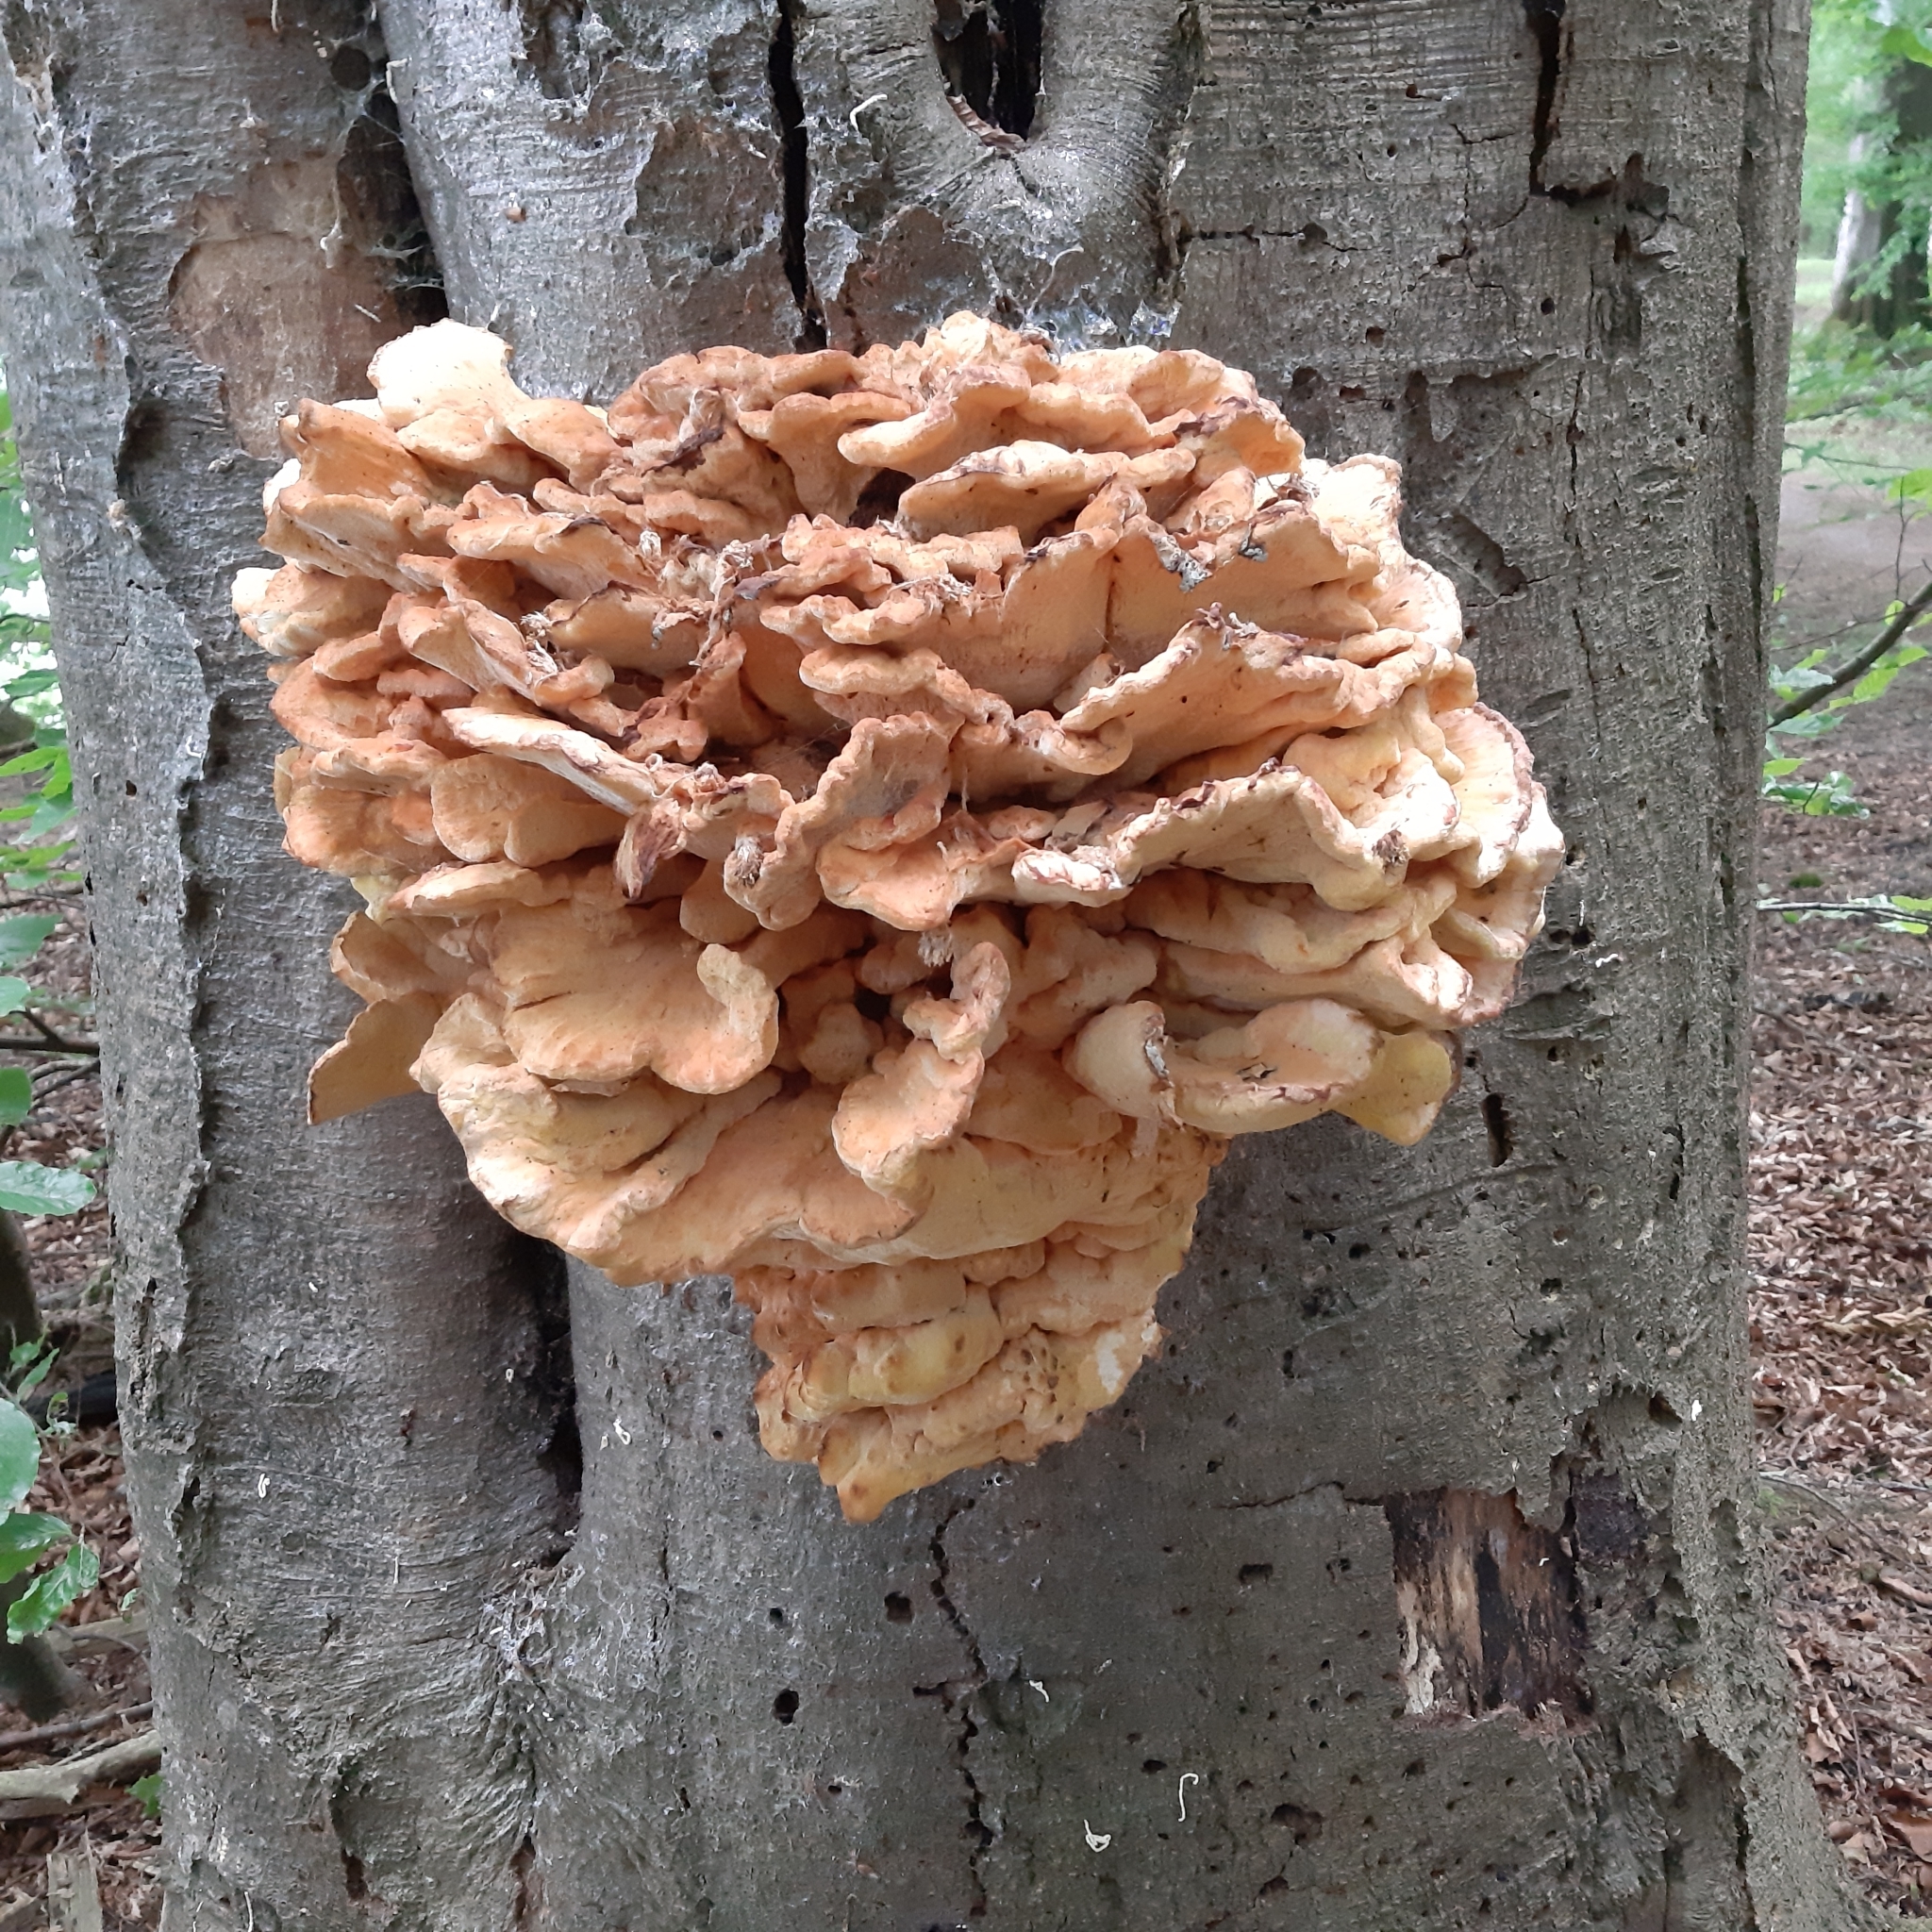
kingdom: Fungi
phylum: Basidiomycota
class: Agaricomycetes
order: Polyporales
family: Laetiporaceae
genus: Laetiporus
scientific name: Laetiporus sulphureus
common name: Chicken of the woods
